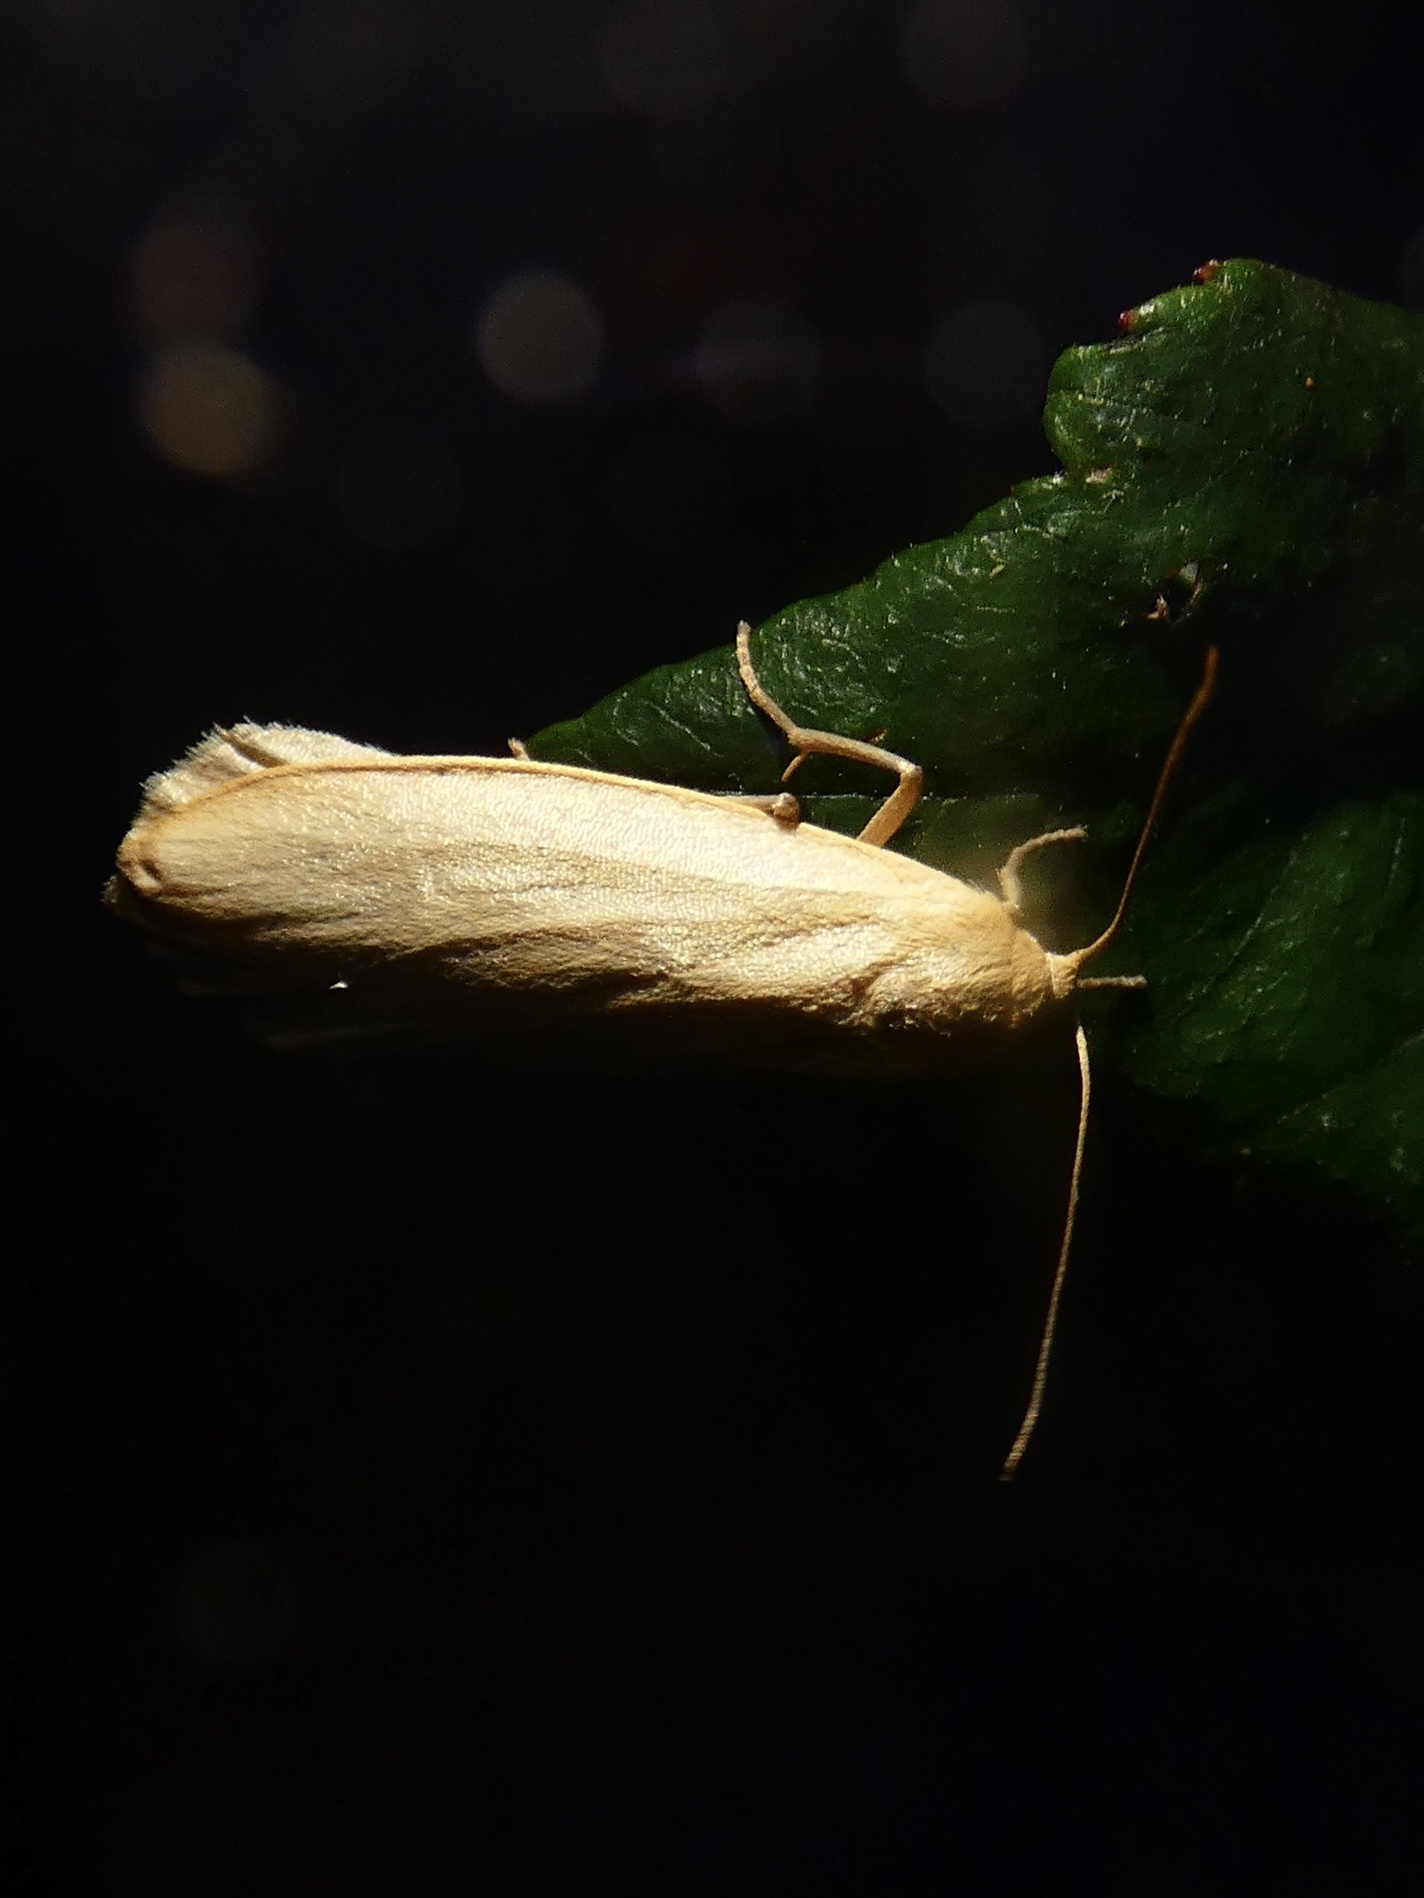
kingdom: Animalia
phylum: Arthropoda
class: Insecta
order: Lepidoptera
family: Erebidae
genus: Katha
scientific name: Katha depressa
